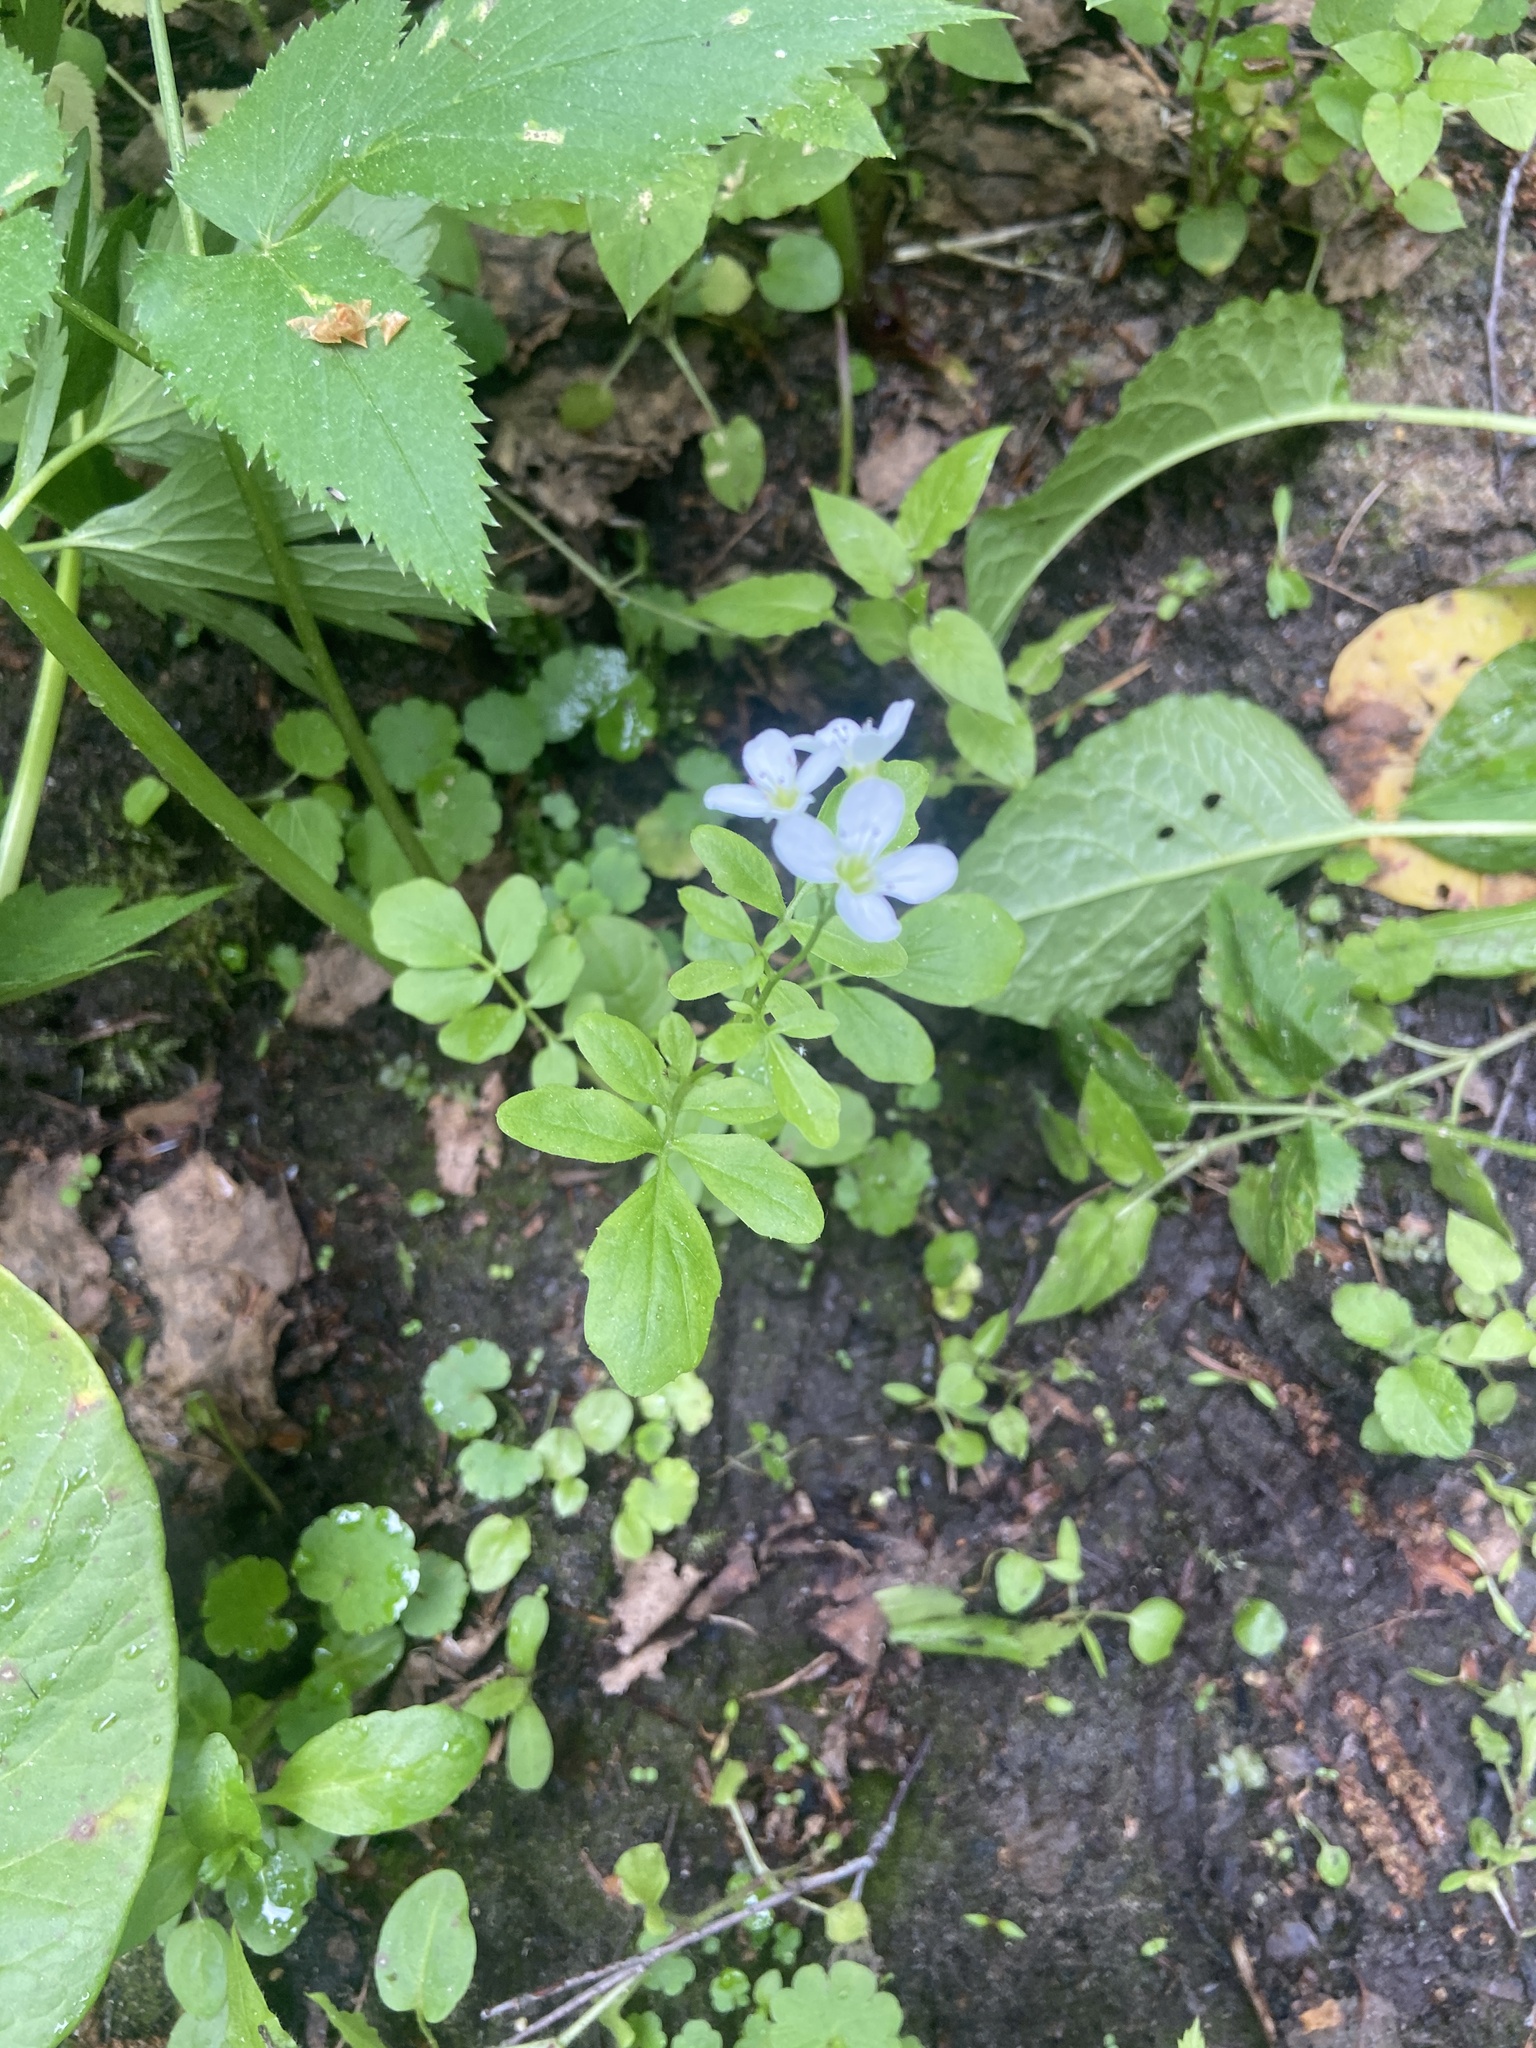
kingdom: Plantae
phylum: Tracheophyta
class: Magnoliopsida
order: Brassicales
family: Brassicaceae
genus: Cardamine
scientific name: Cardamine amara
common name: Large bitter-cress
